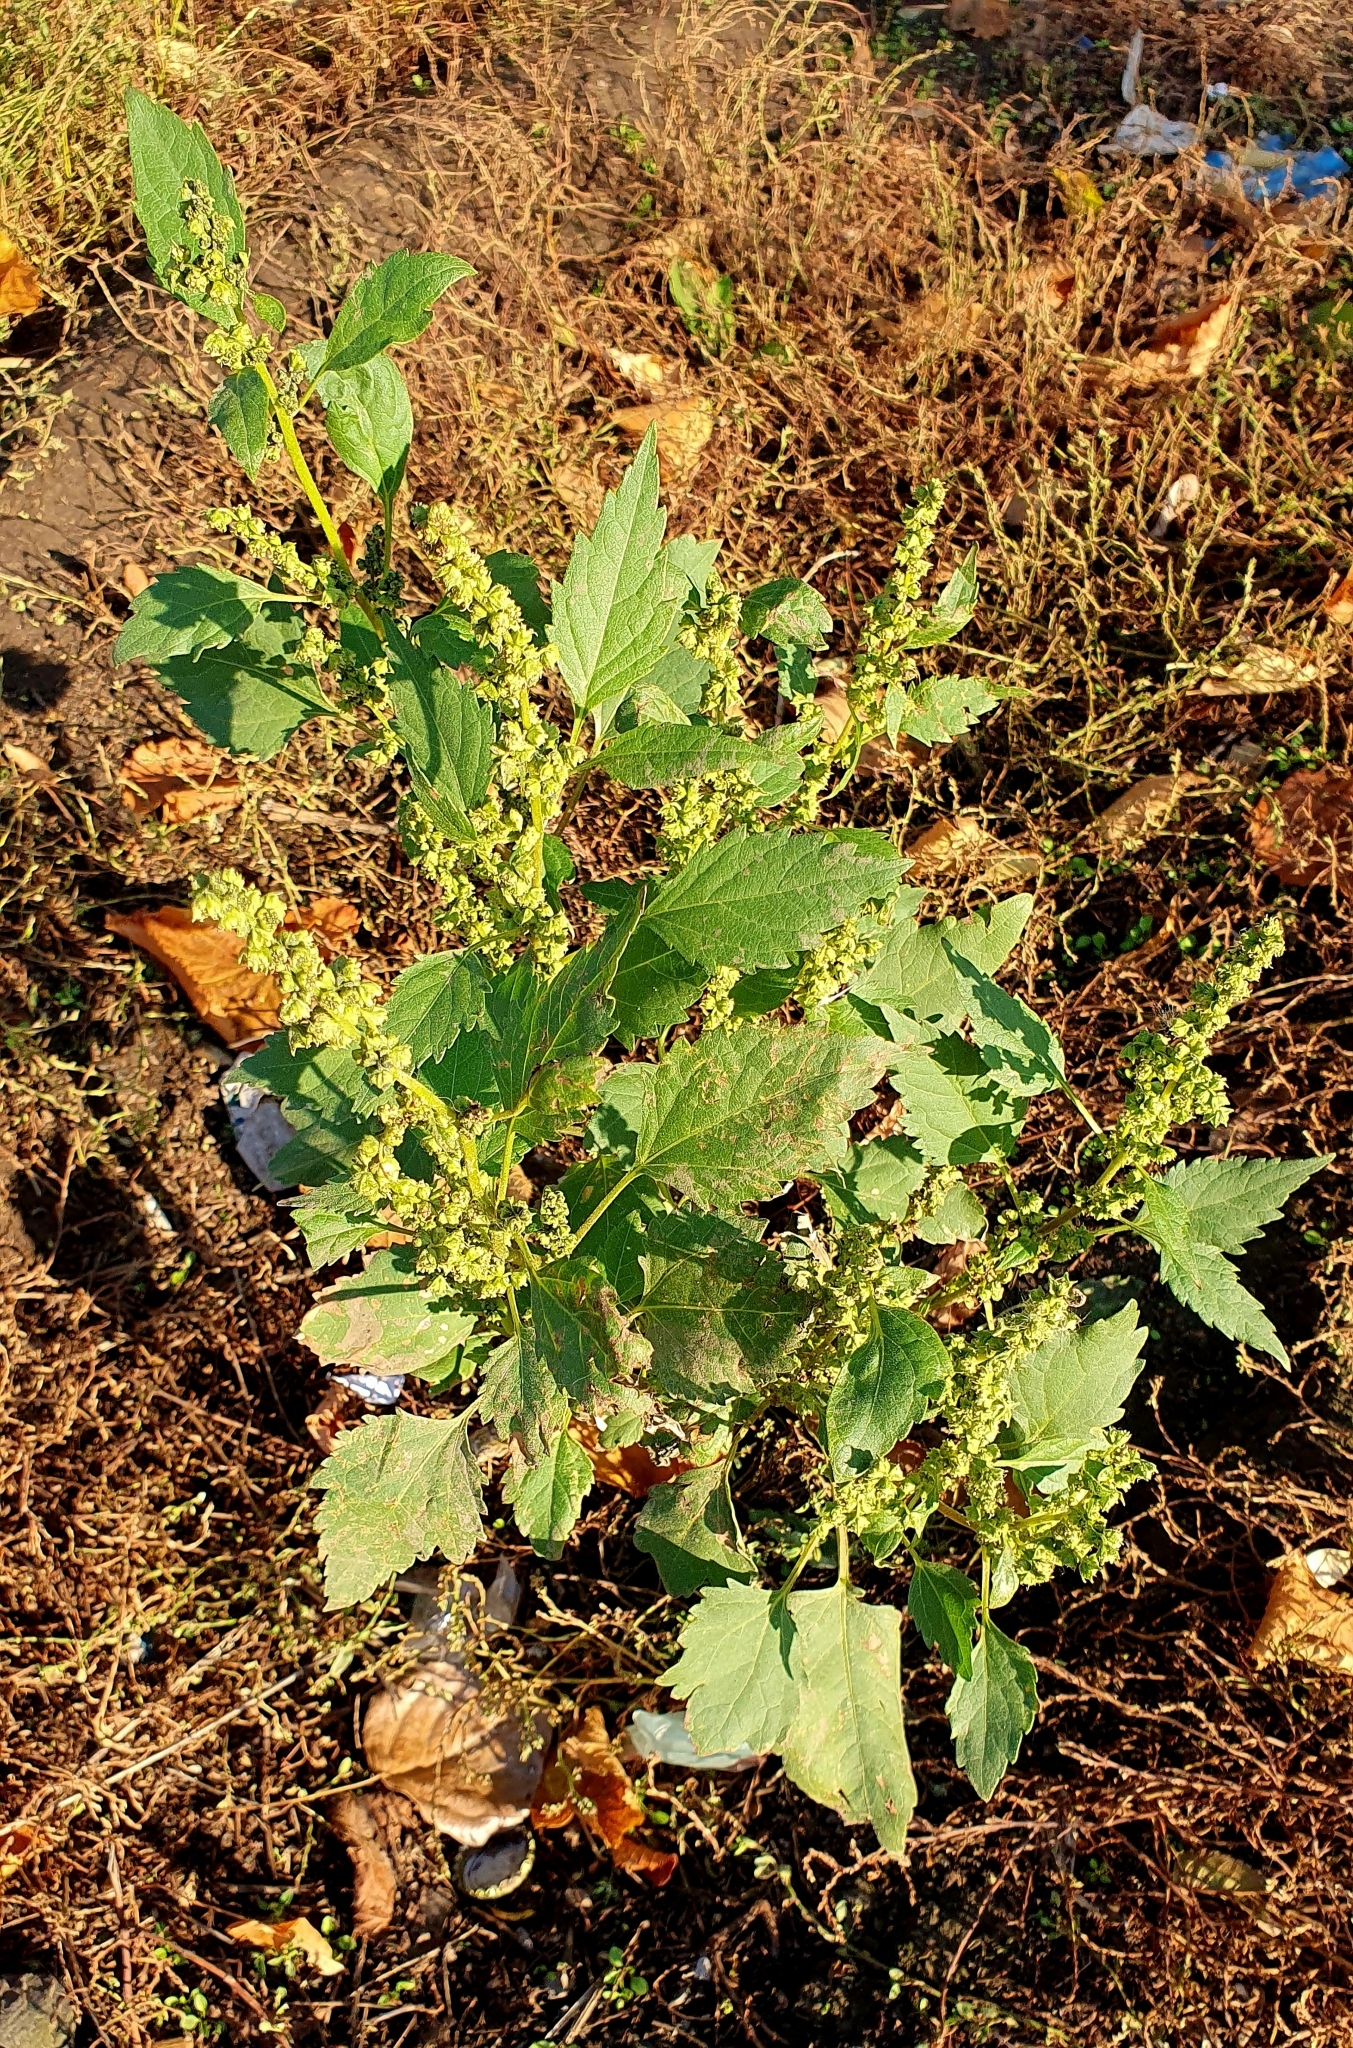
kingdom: Plantae
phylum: Tracheophyta
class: Magnoliopsida
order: Asterales
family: Asteraceae
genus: Cyclachaena
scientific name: Cyclachaena xanthiifolia
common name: Giant sumpweed
